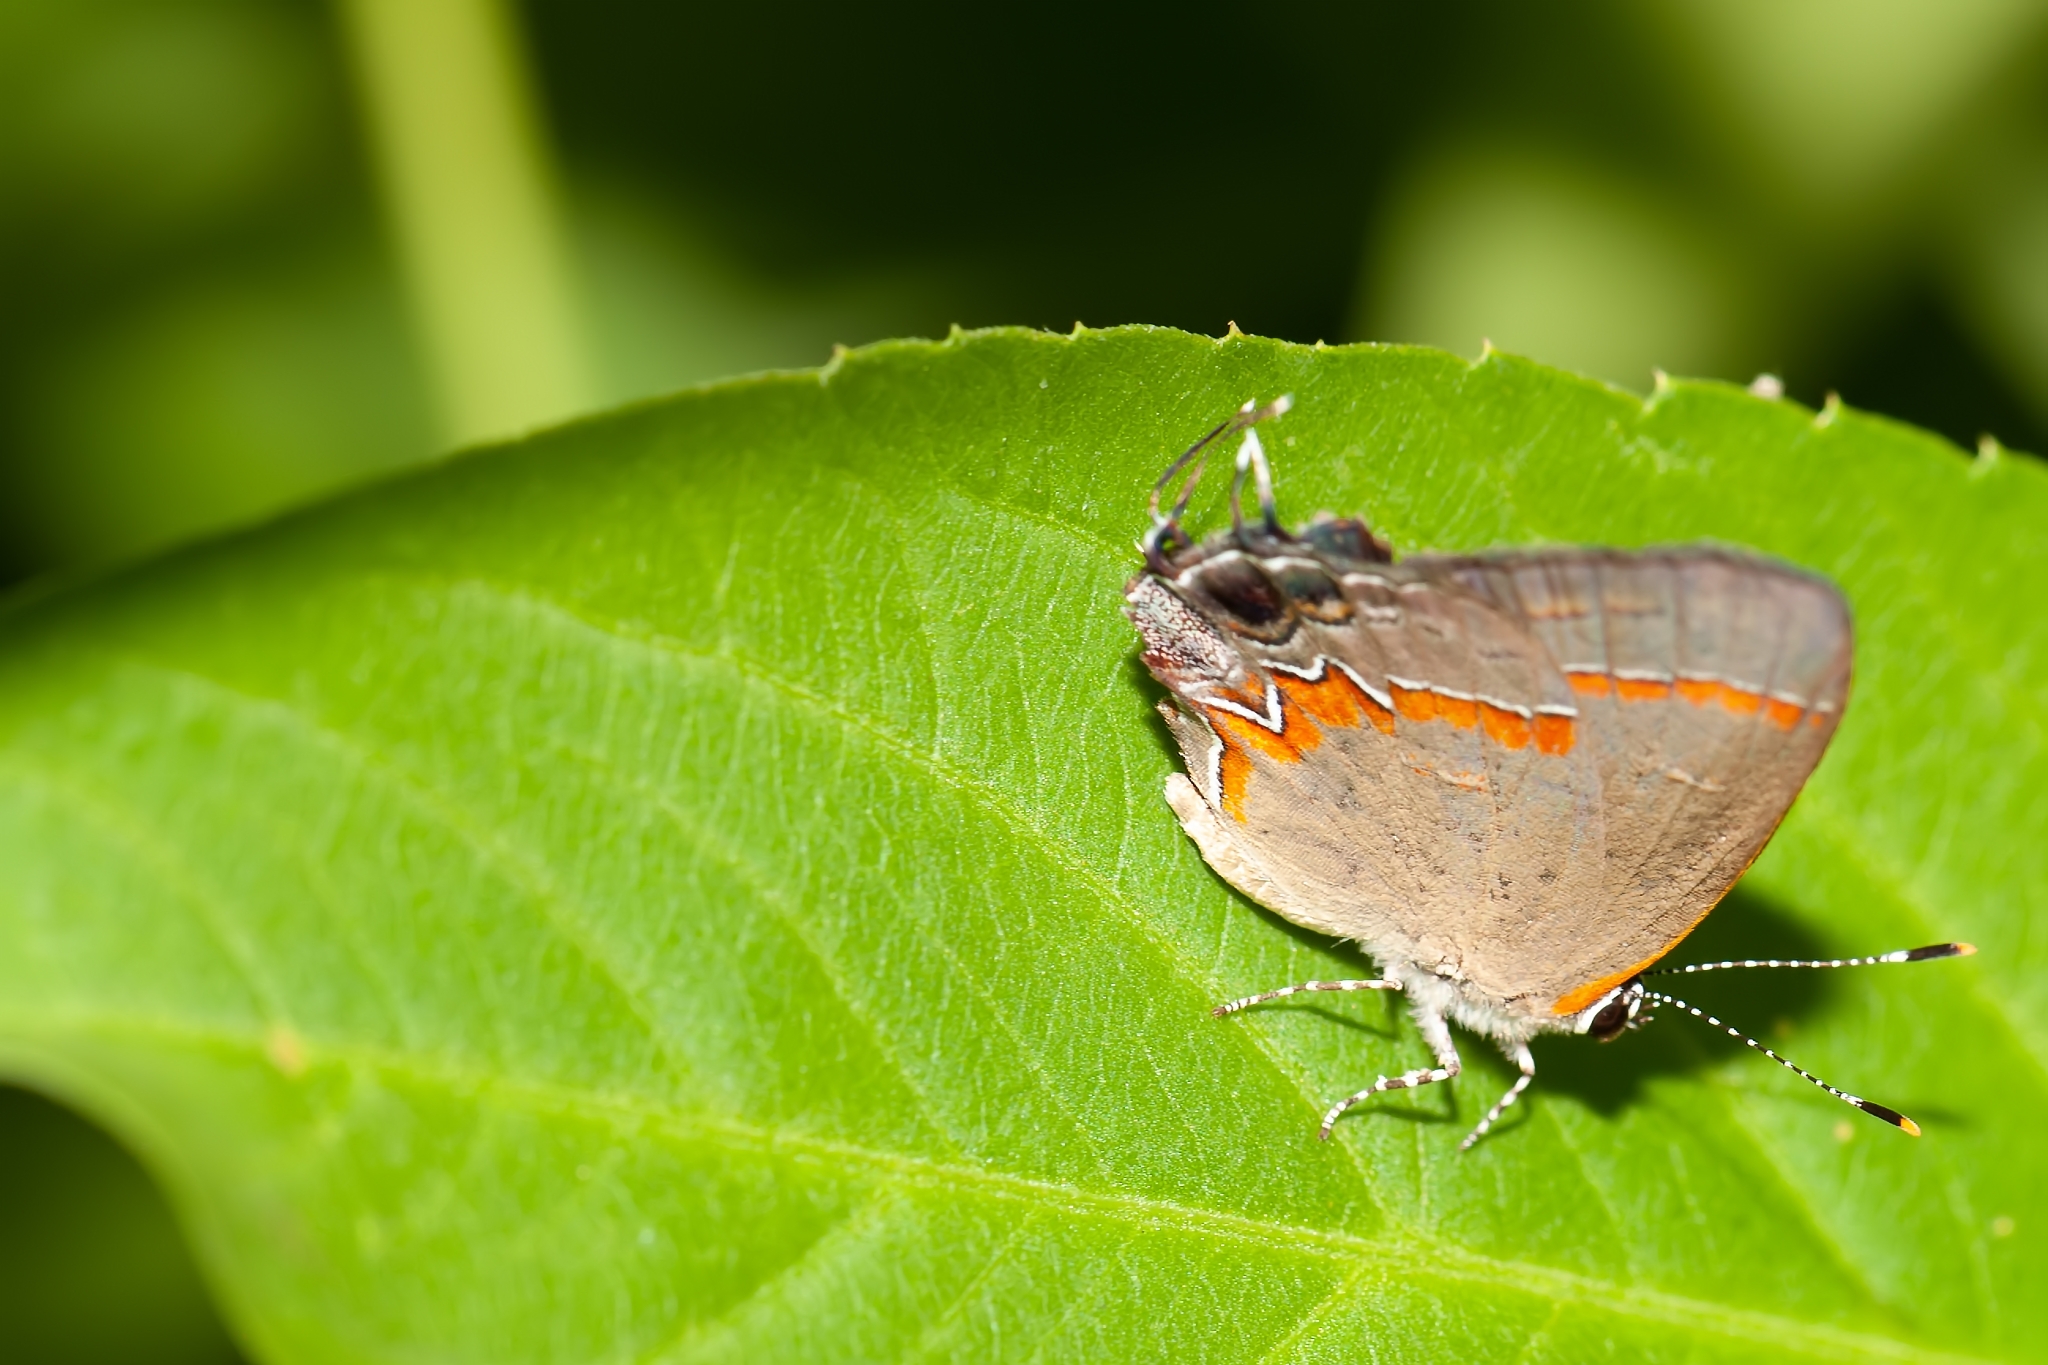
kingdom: Animalia
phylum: Arthropoda
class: Insecta
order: Lepidoptera
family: Lycaenidae
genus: Calycopis
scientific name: Calycopis cecrops
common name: Red-banded hairstreak
